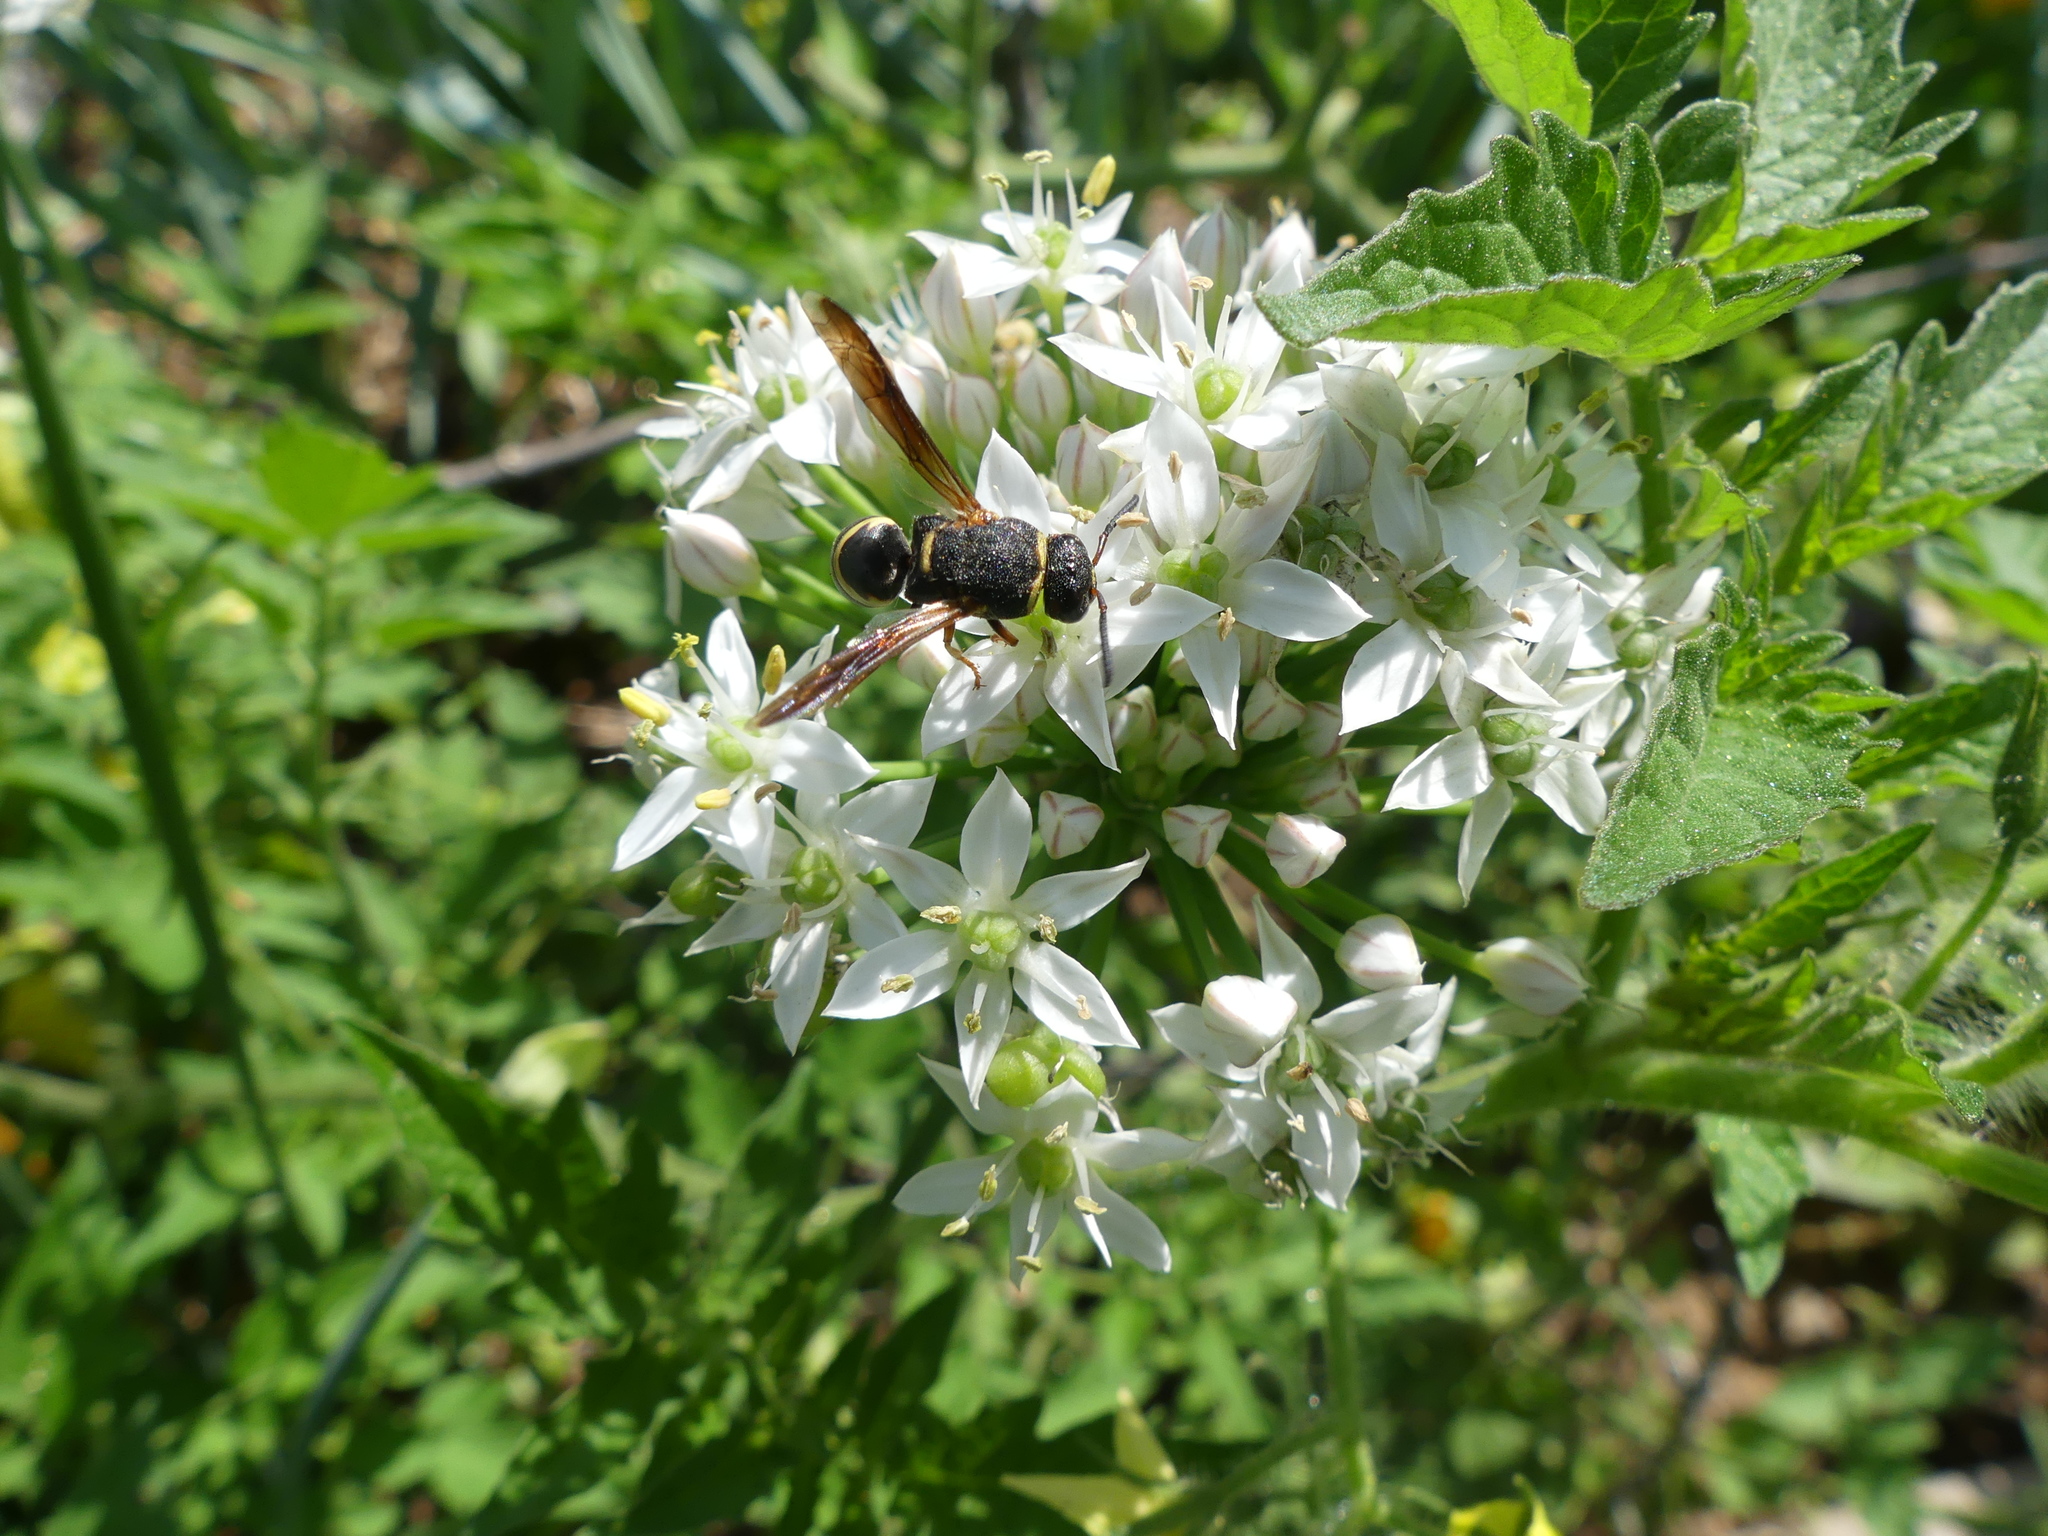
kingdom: Animalia
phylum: Arthropoda
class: Insecta
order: Hymenoptera
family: Eumenidae
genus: Euodynerus
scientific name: Euodynerus hidalgo
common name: Wasp
